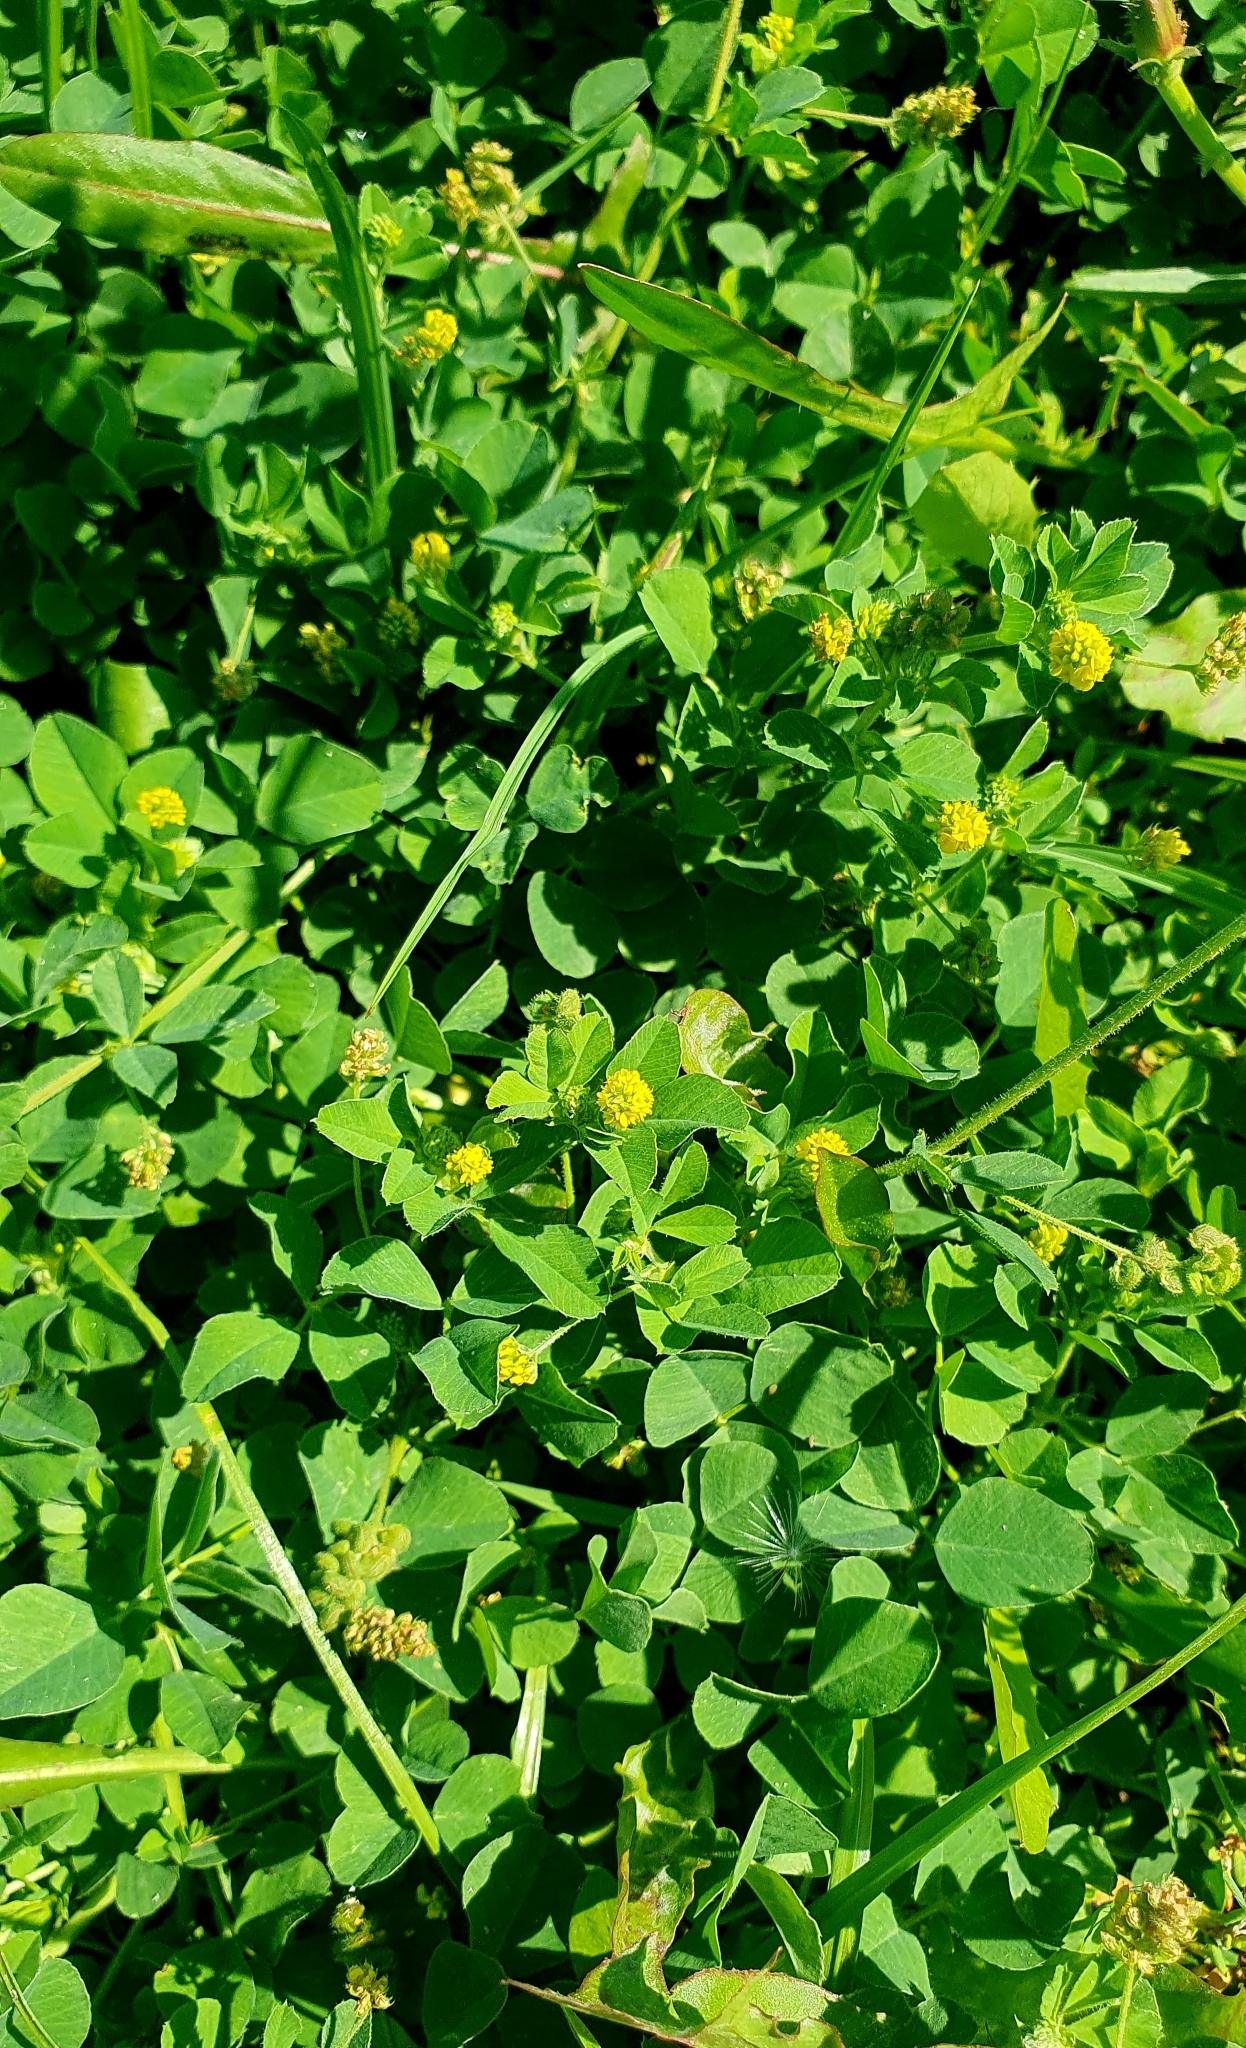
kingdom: Plantae
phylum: Tracheophyta
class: Magnoliopsida
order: Fabales
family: Fabaceae
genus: Medicago
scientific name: Medicago lupulina
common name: Black medick
